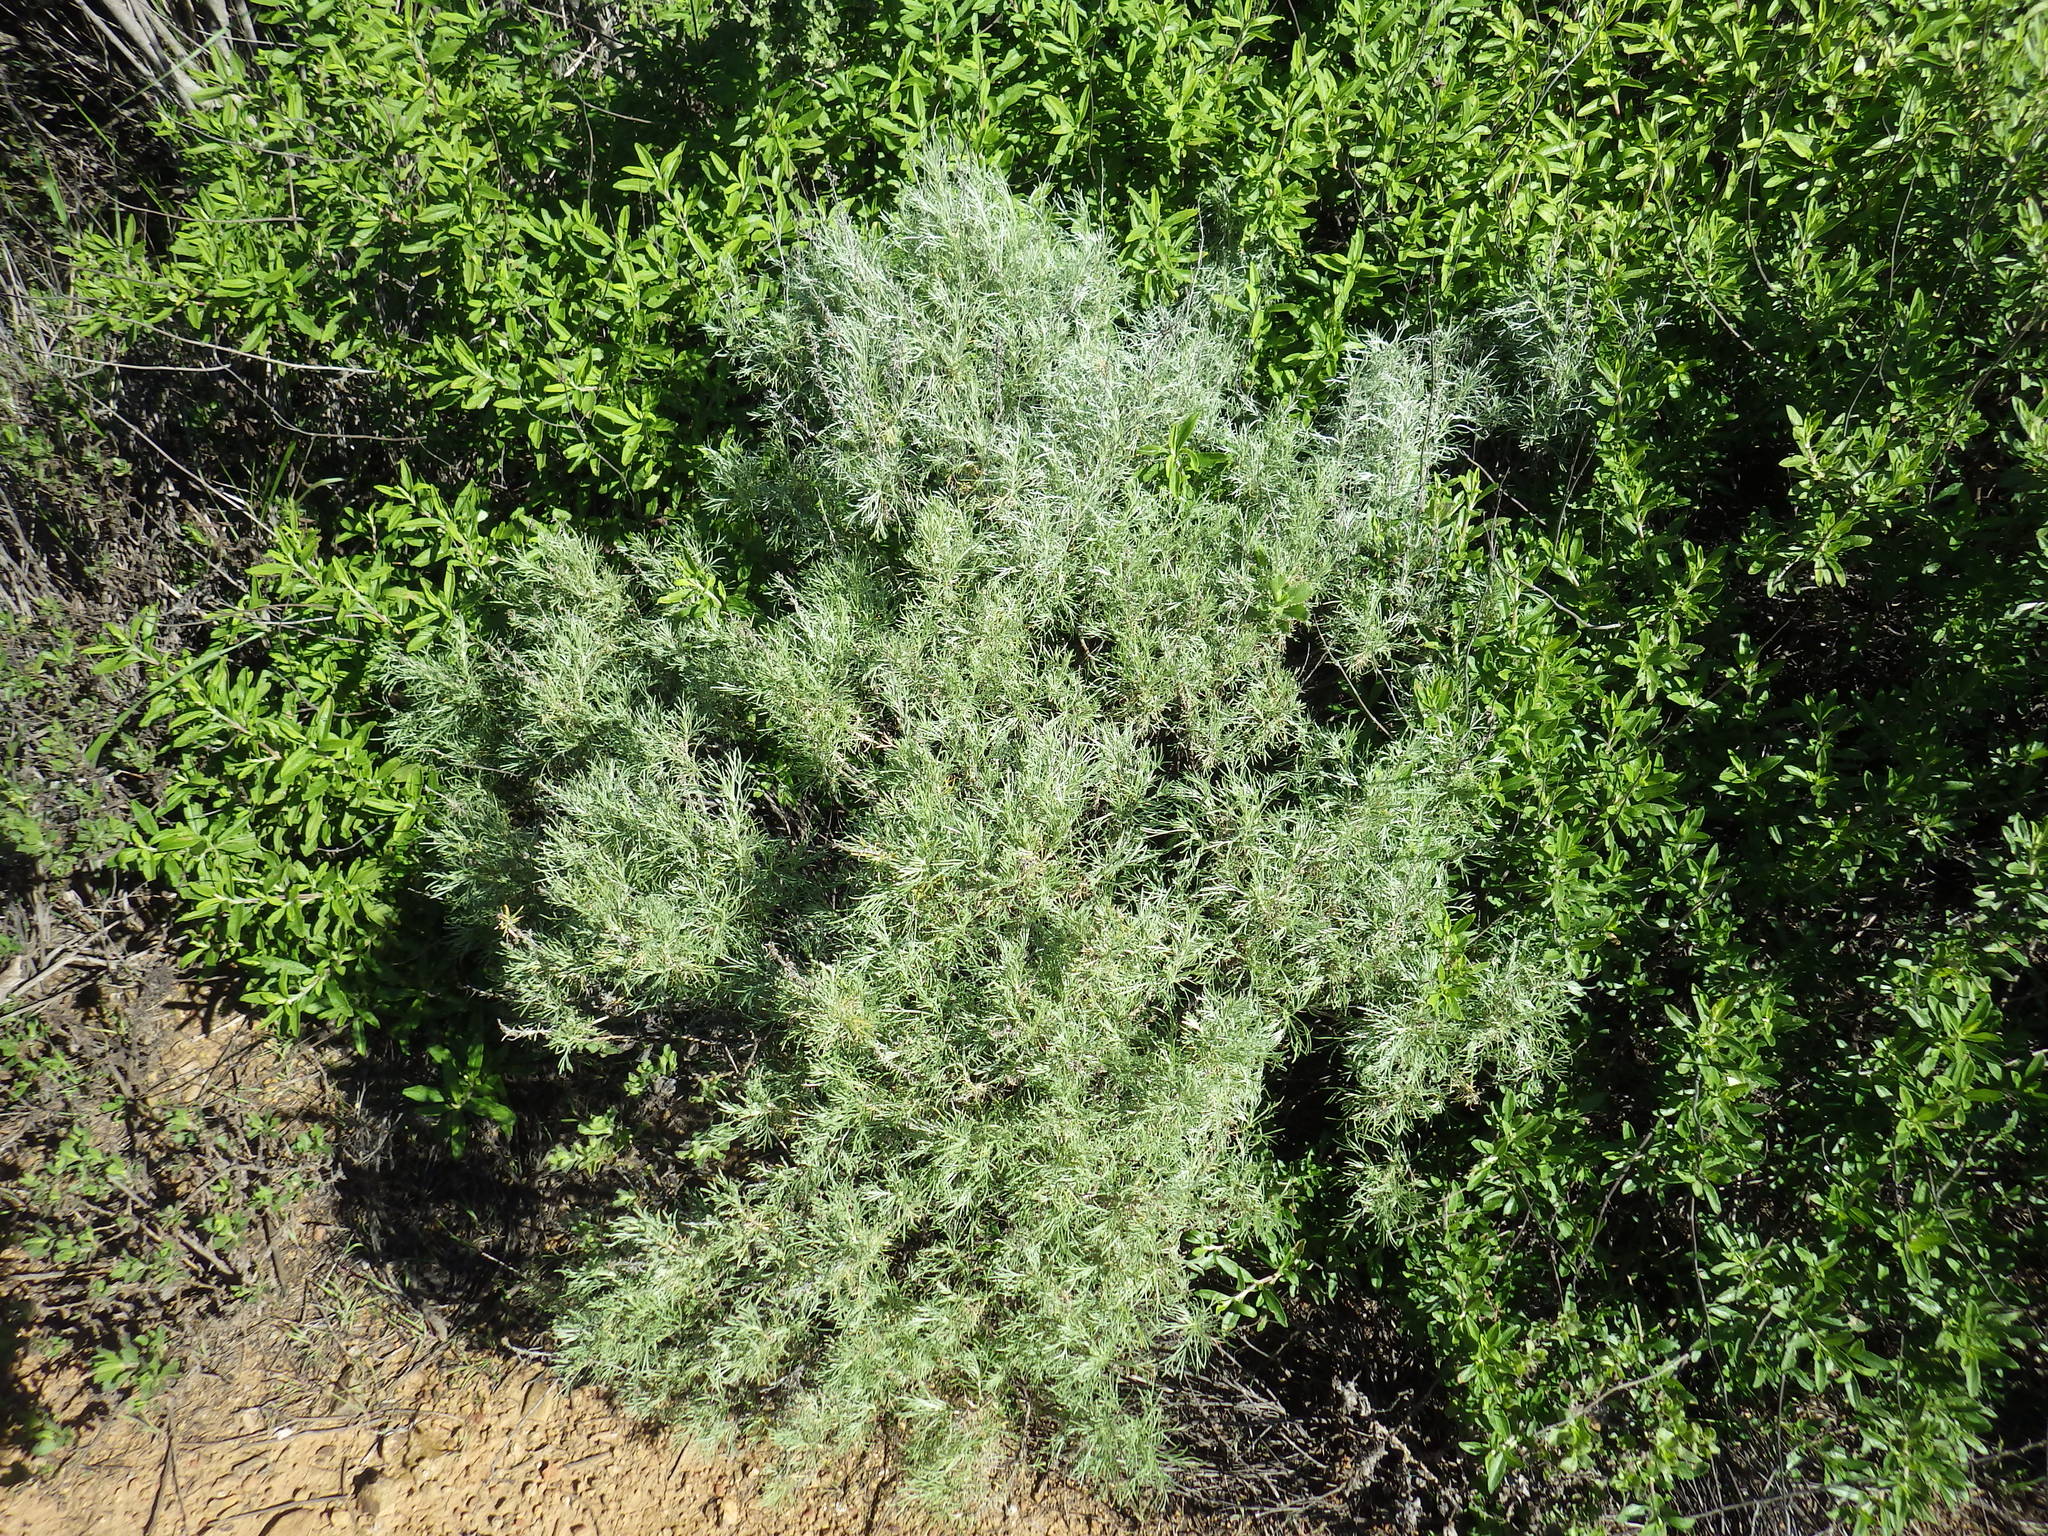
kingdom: Plantae
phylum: Tracheophyta
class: Magnoliopsida
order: Asterales
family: Asteraceae
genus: Artemisia
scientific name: Artemisia californica
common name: California sagebrush
